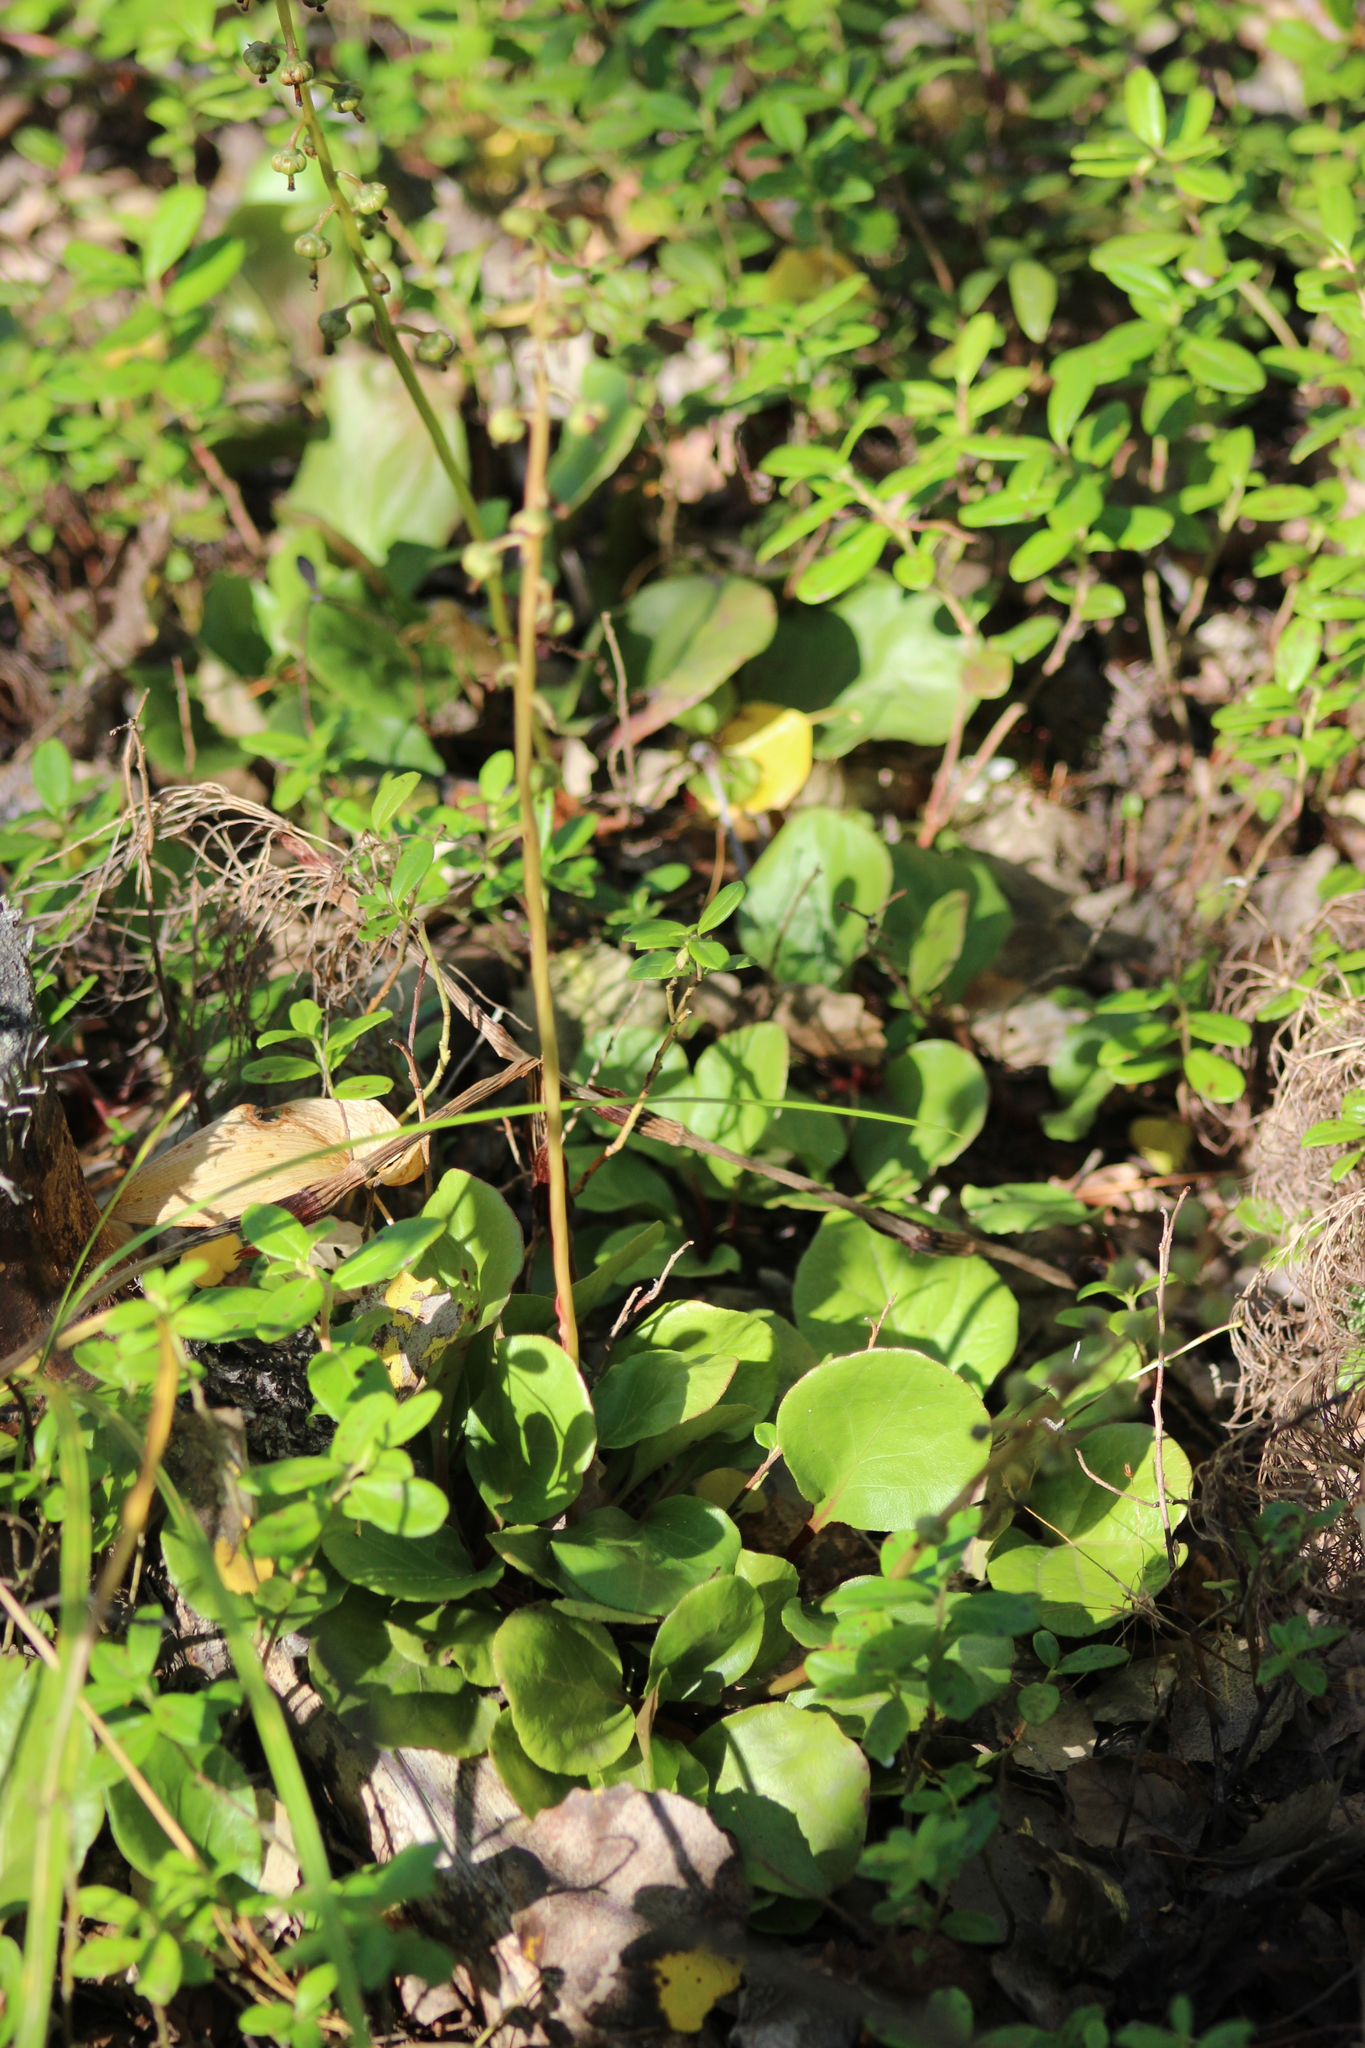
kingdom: Plantae
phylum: Tracheophyta
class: Magnoliopsida
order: Ericales
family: Ericaceae
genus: Pyrola
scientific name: Pyrola media
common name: Intermediate wintergreen
